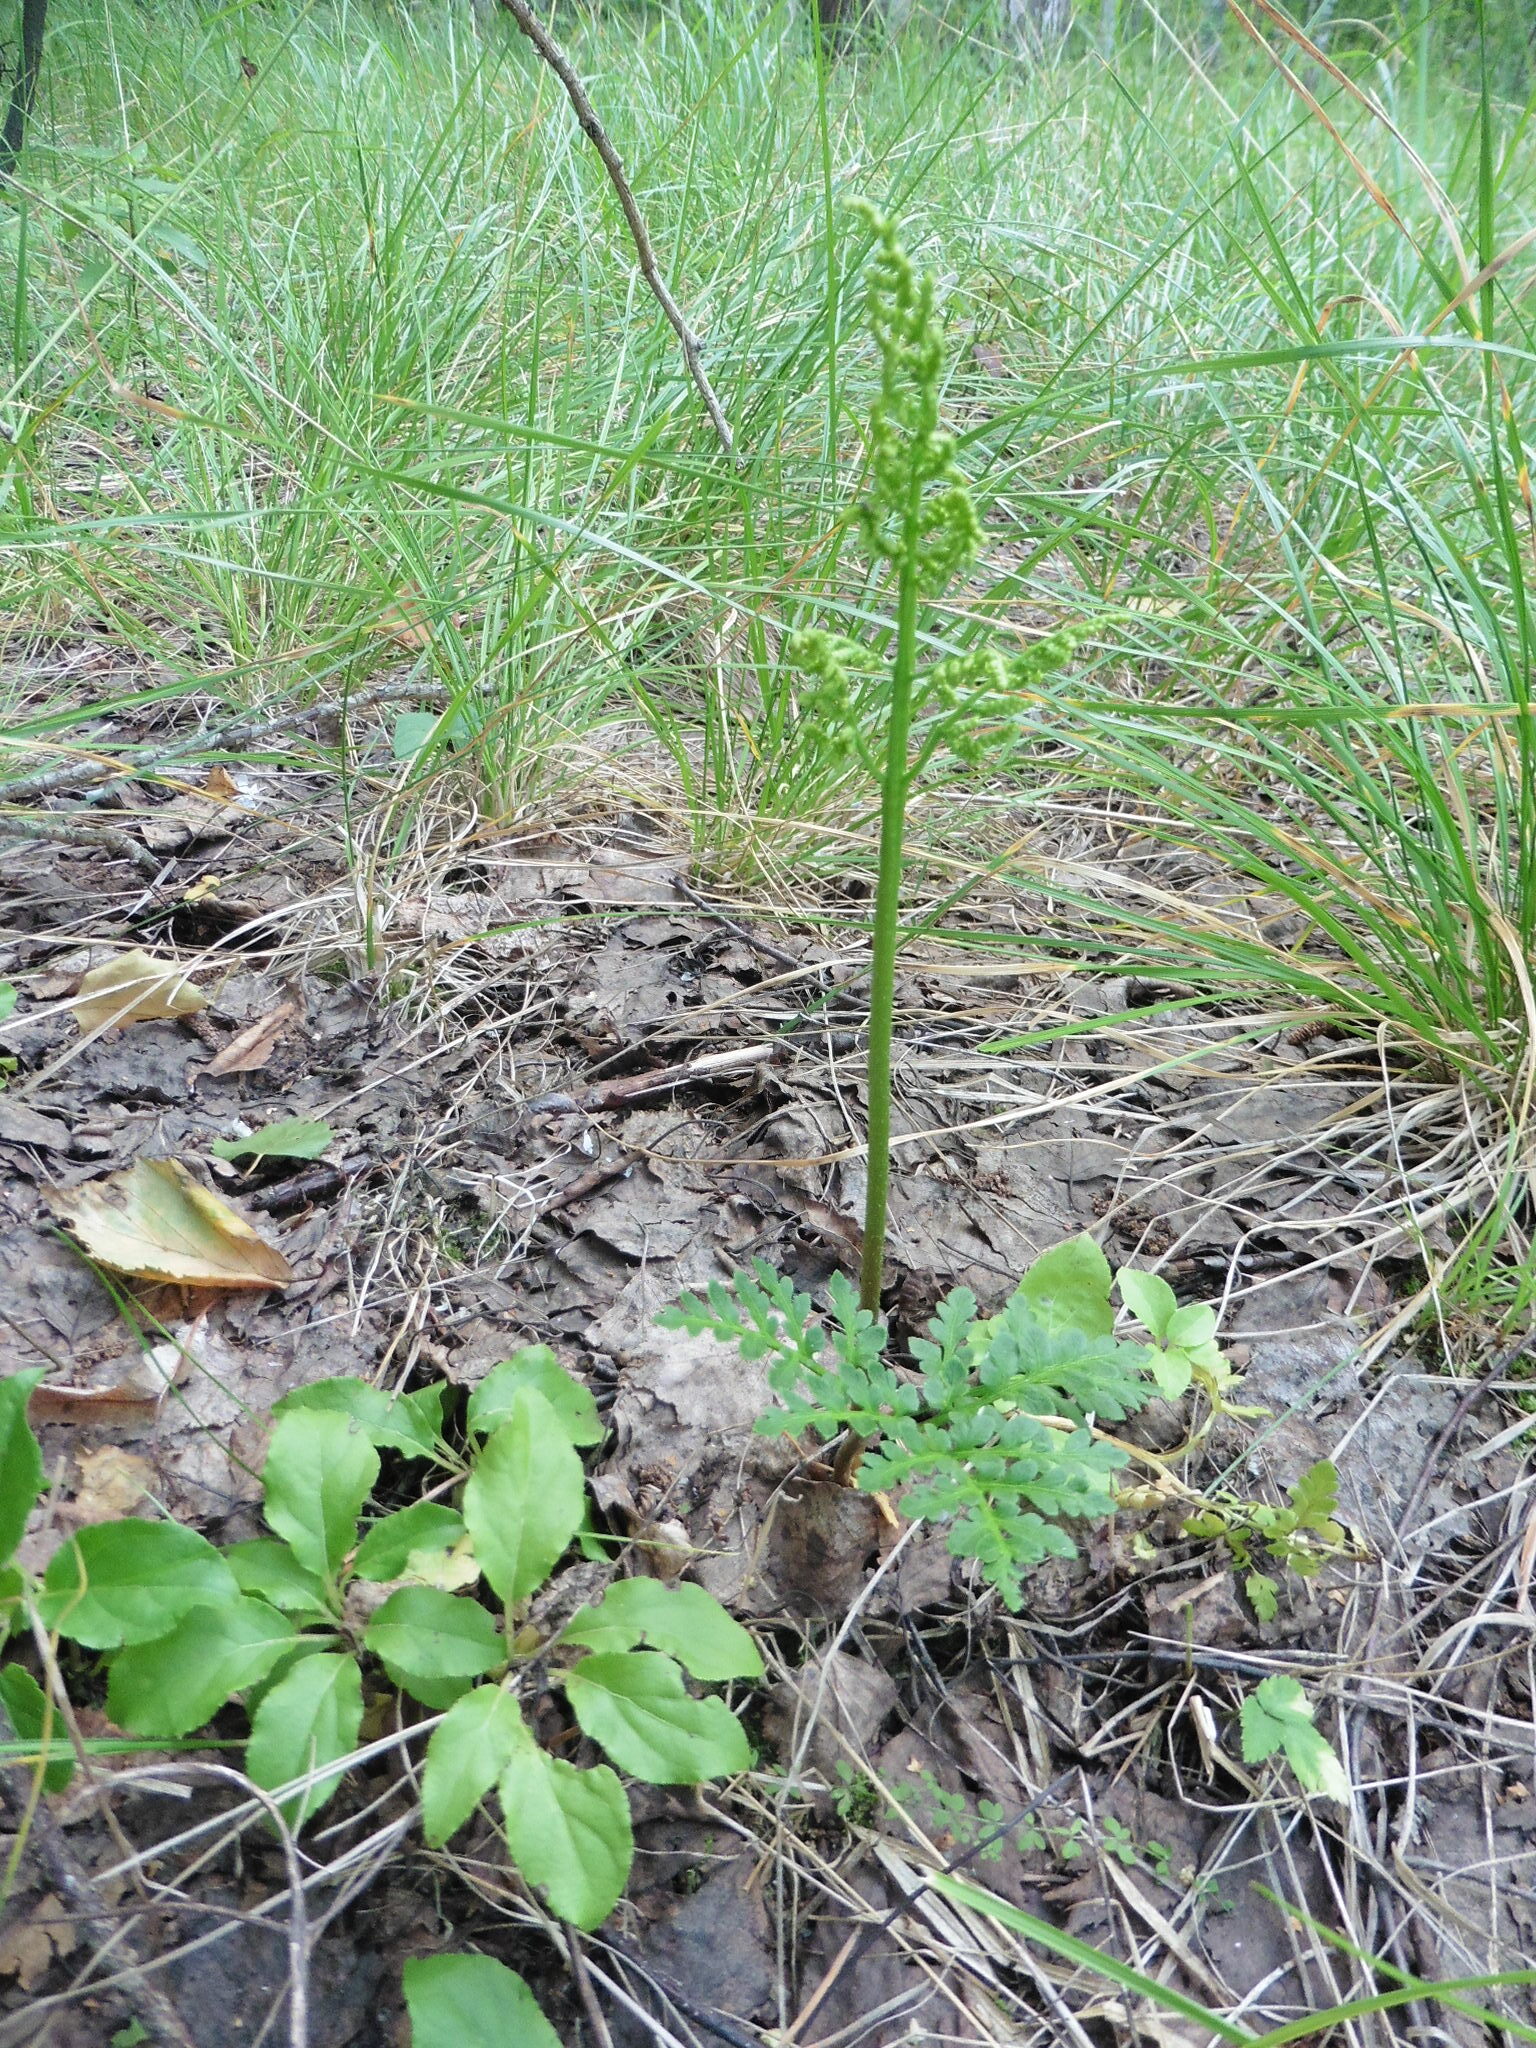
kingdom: Plantae
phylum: Tracheophyta
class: Polypodiopsida
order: Ophioglossales
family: Ophioglossaceae
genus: Sceptridium
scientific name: Sceptridium multifidum
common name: Leathery grape fern
